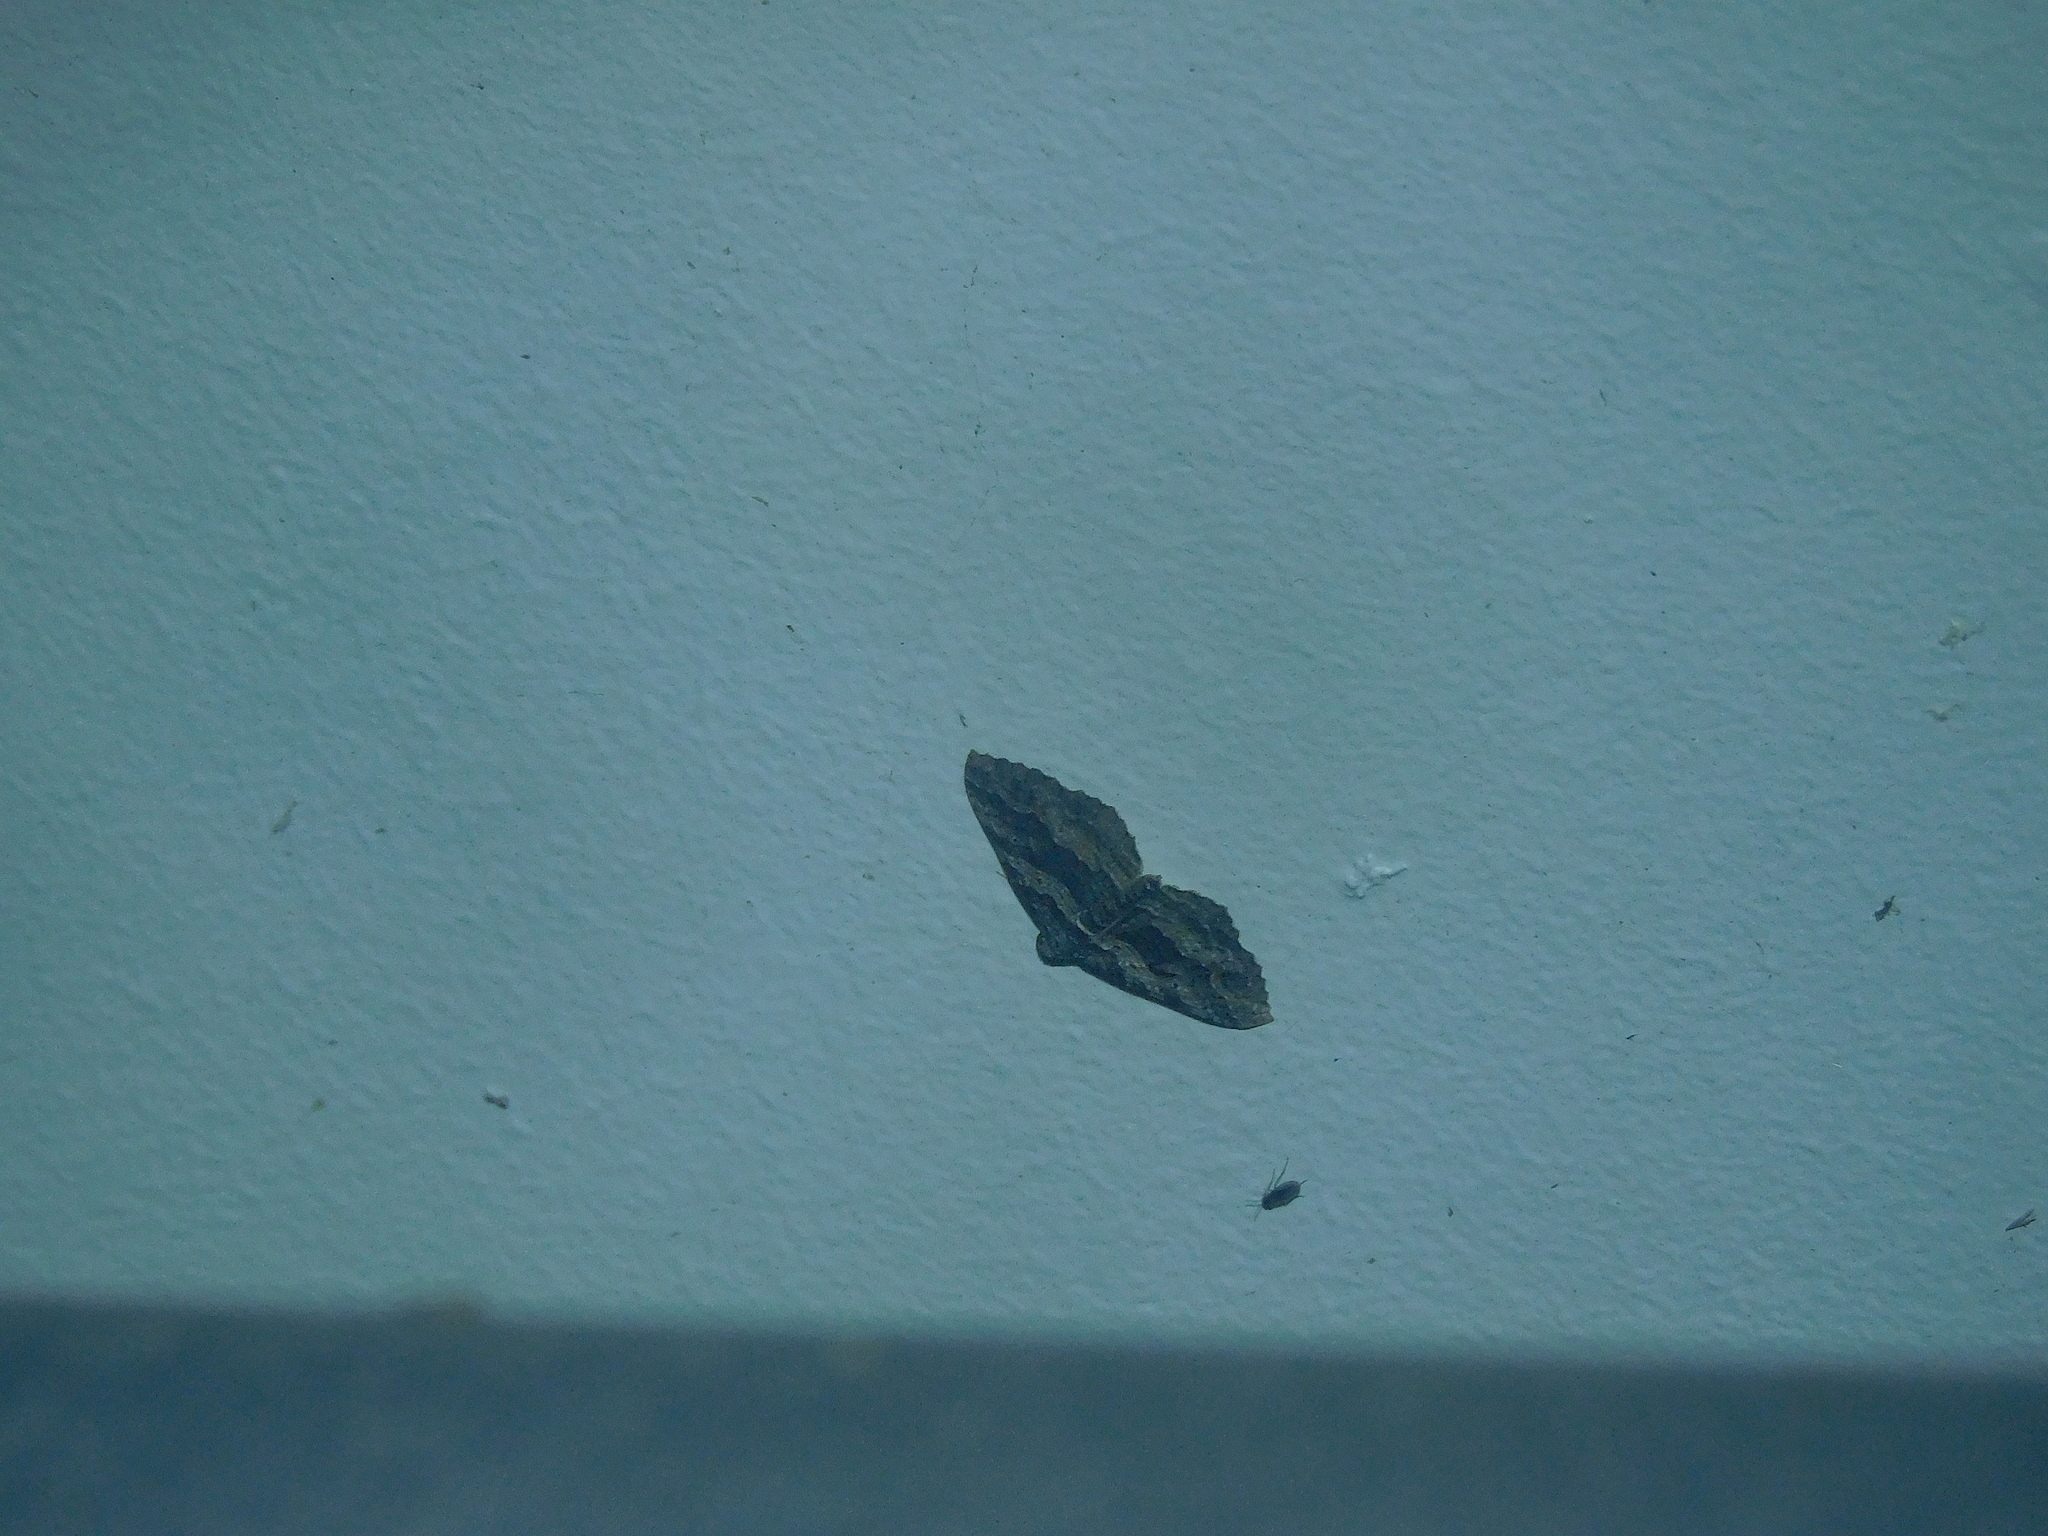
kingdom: Animalia
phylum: Arthropoda
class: Insecta
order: Lepidoptera
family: Geometridae
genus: Chrysolarentia
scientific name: Chrysolarentia severata
